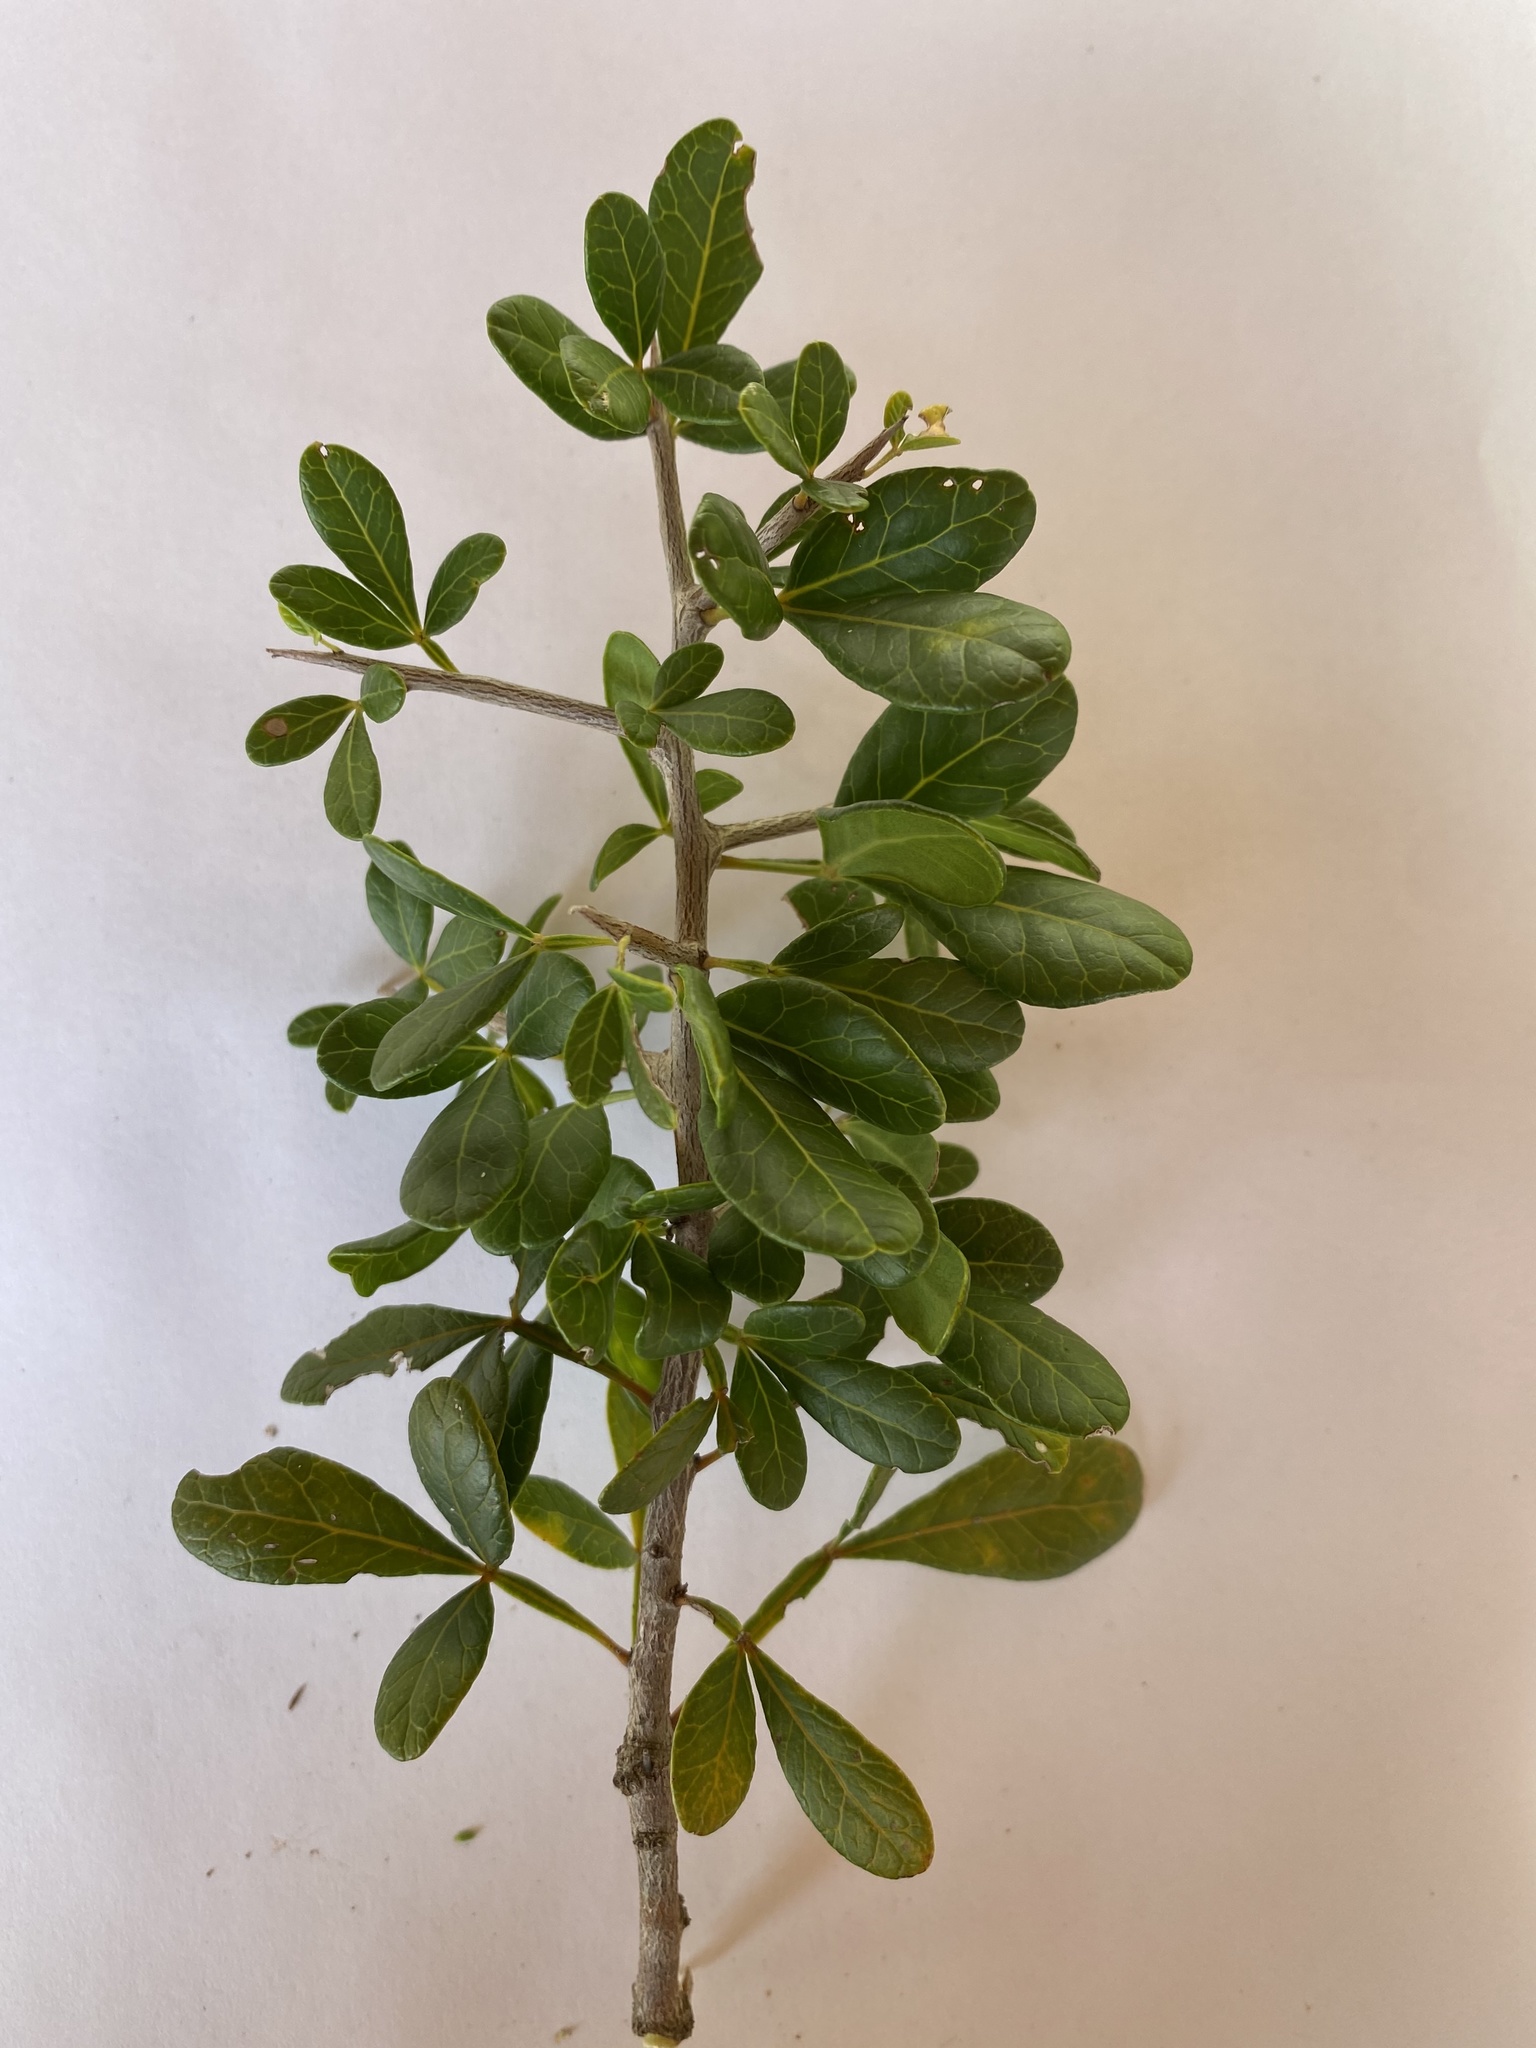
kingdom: Plantae
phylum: Tracheophyta
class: Magnoliopsida
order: Sapindales
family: Anacardiaceae
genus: Searsia
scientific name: Searsia pterota
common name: Winged currant
